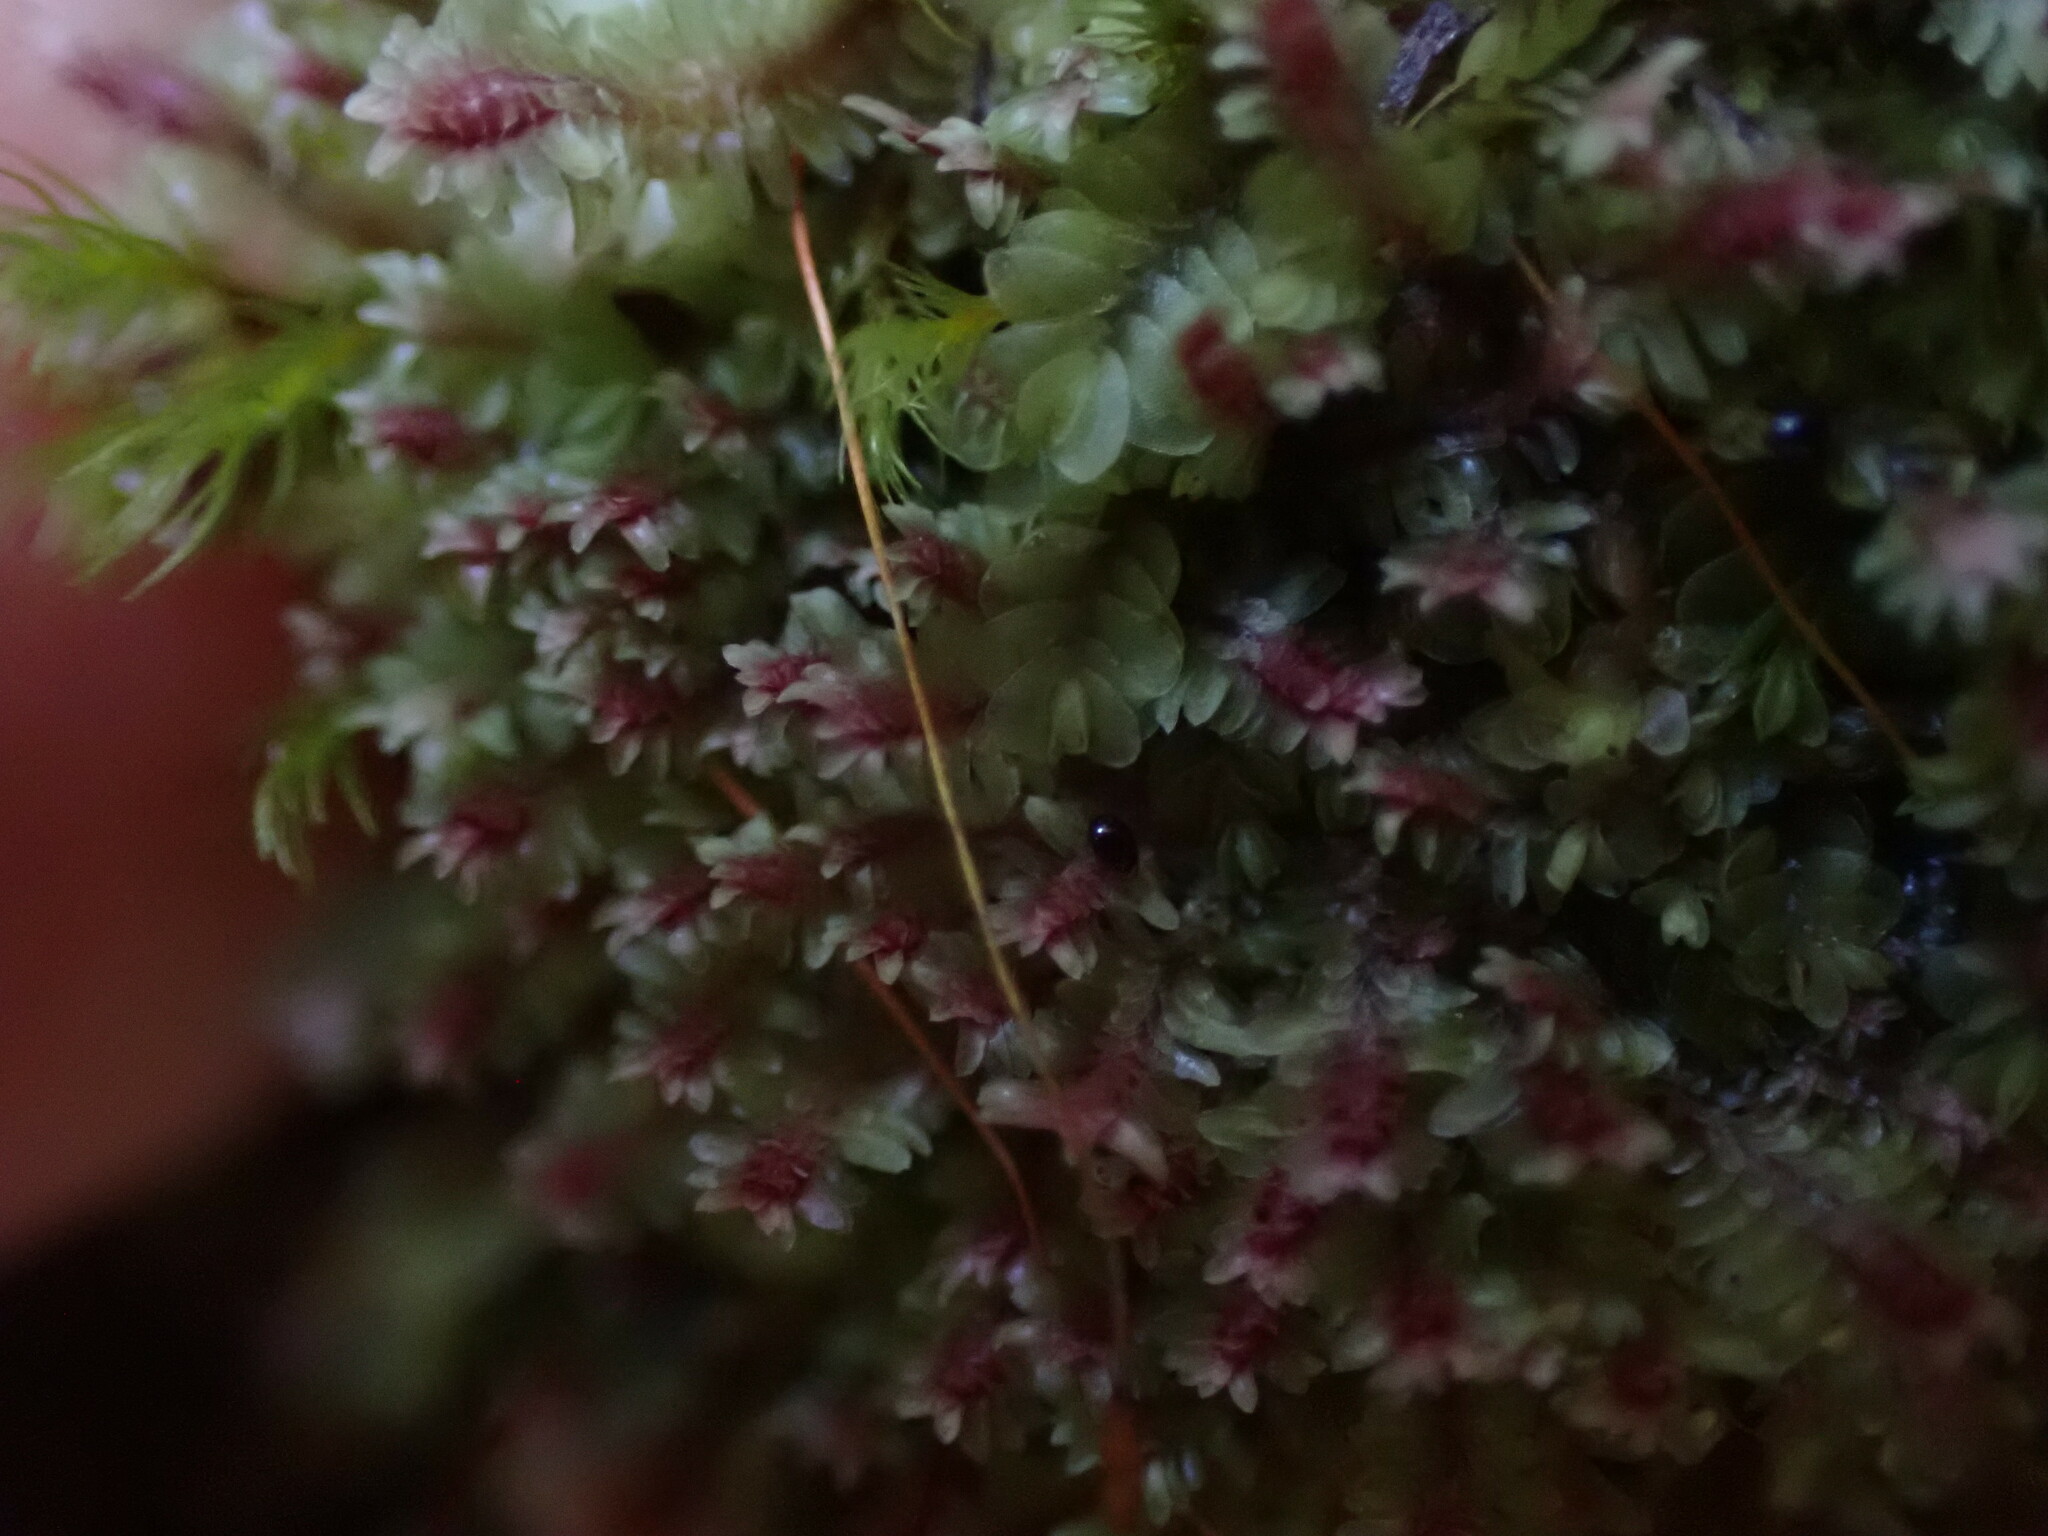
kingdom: Plantae
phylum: Marchantiophyta
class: Jungermanniopsida
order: Jungermanniales
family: Scapaniaceae
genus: Diplophyllum
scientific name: Diplophyllum albicans
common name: White earwort
